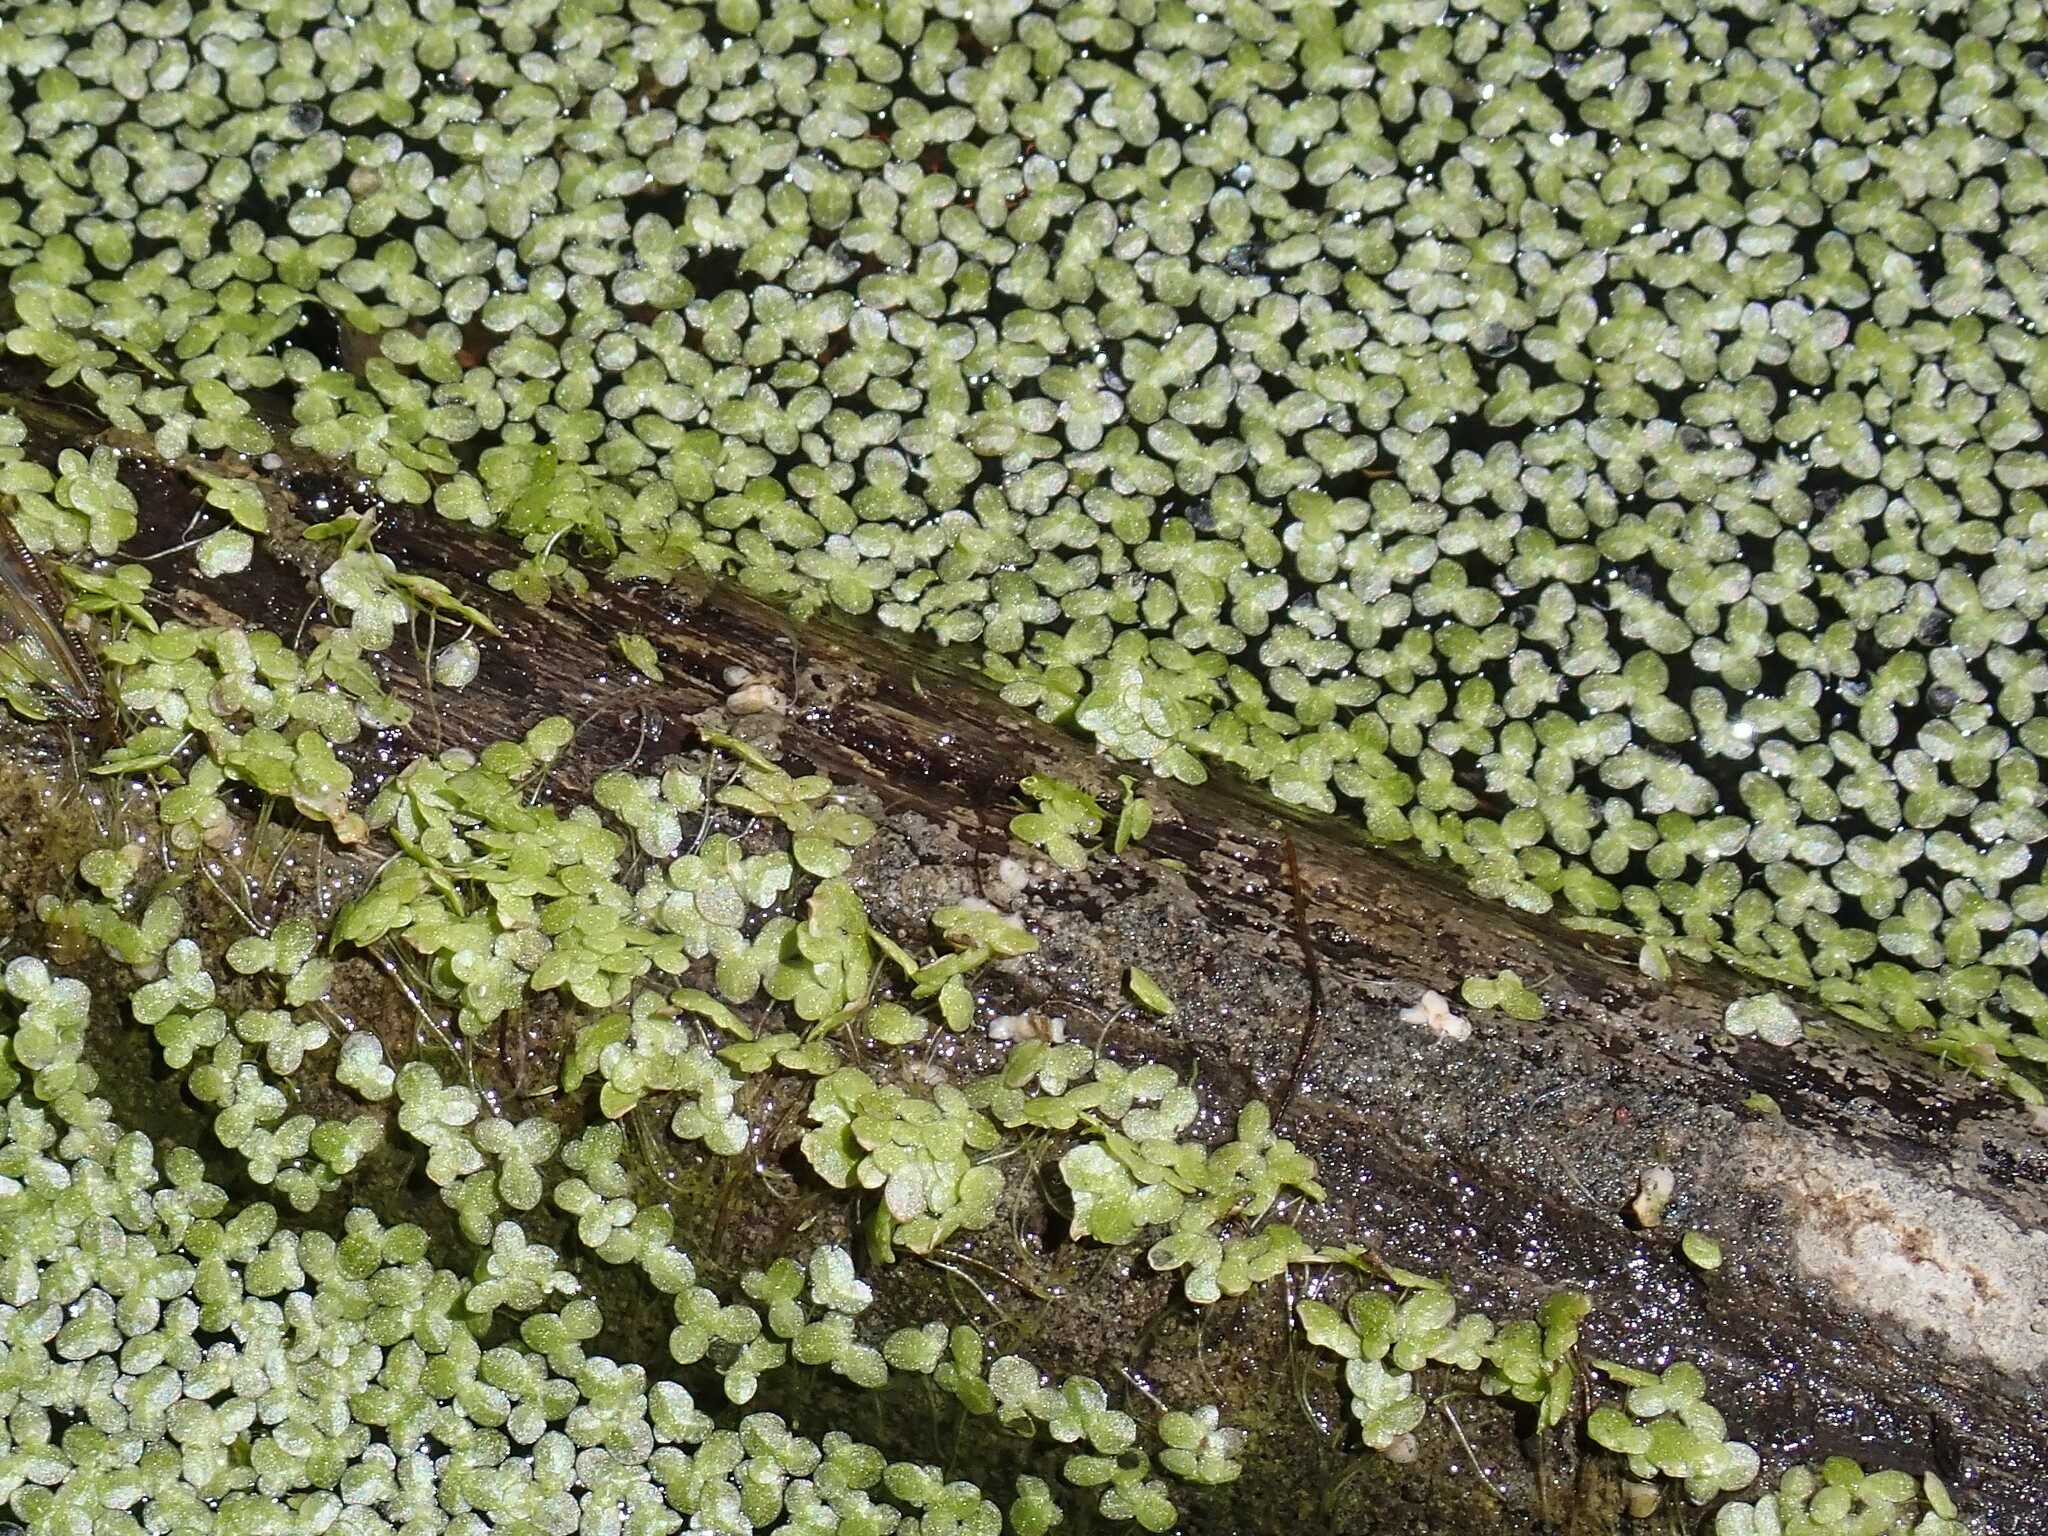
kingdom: Plantae
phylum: Tracheophyta
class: Liliopsida
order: Alismatales
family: Araceae
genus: Lemna
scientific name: Lemna minor
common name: Common duckweed
